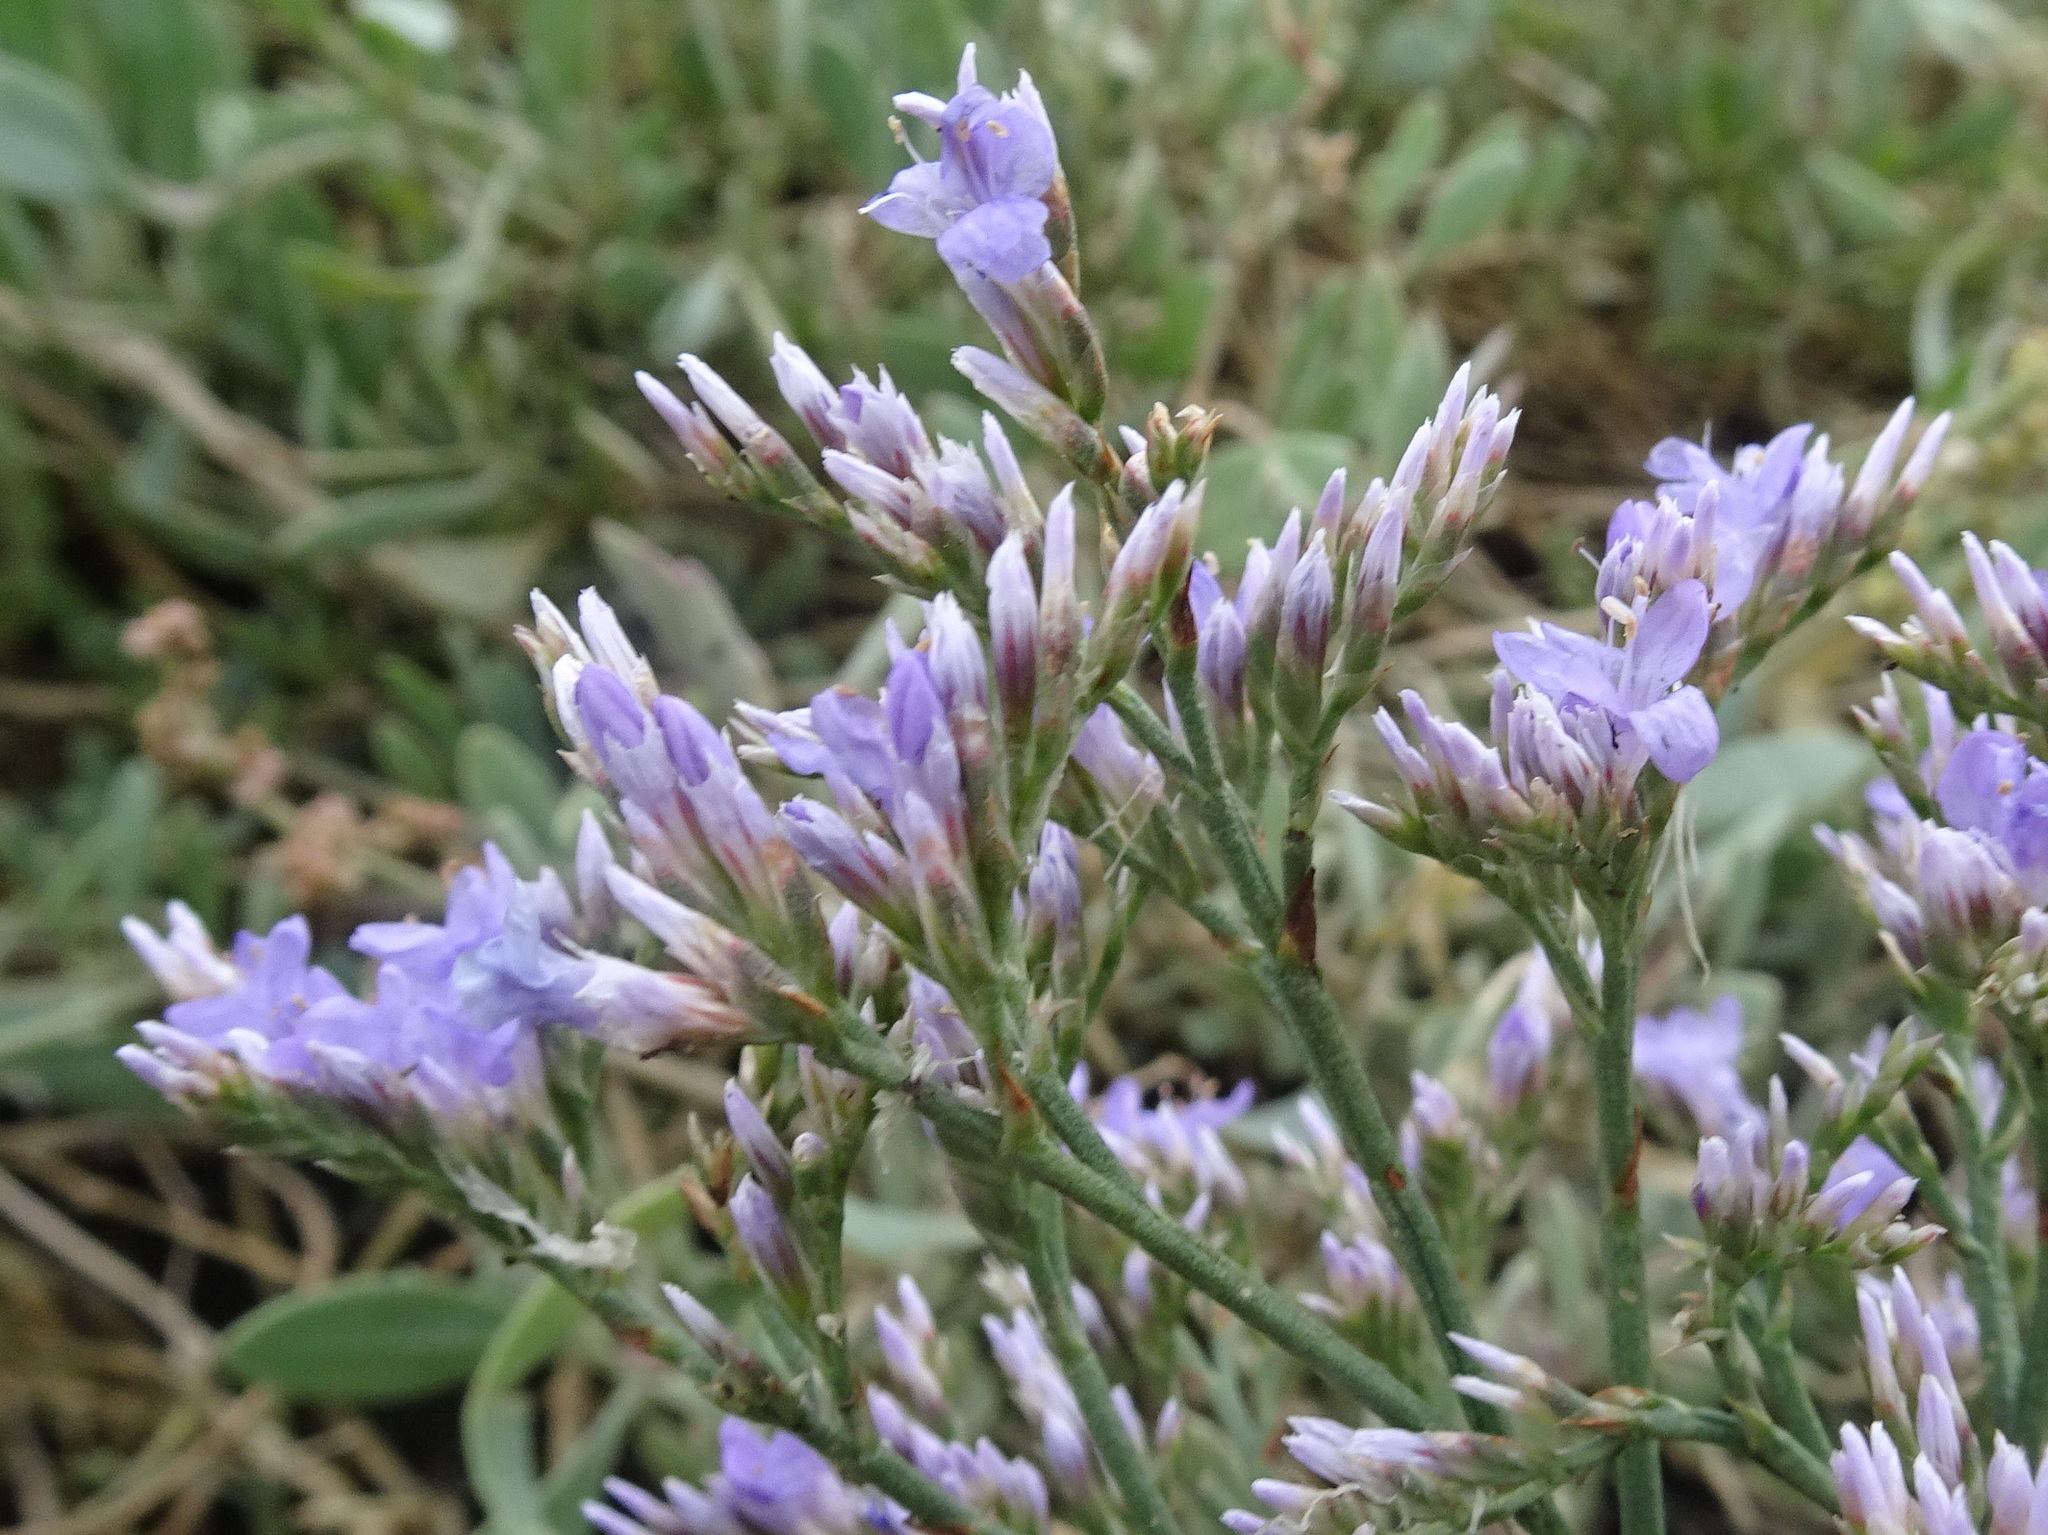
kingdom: Plantae
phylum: Tracheophyta
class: Magnoliopsida
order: Caryophyllales
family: Plumbaginaceae
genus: Limonium
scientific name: Limonium vulgare
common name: Common sea-lavender
